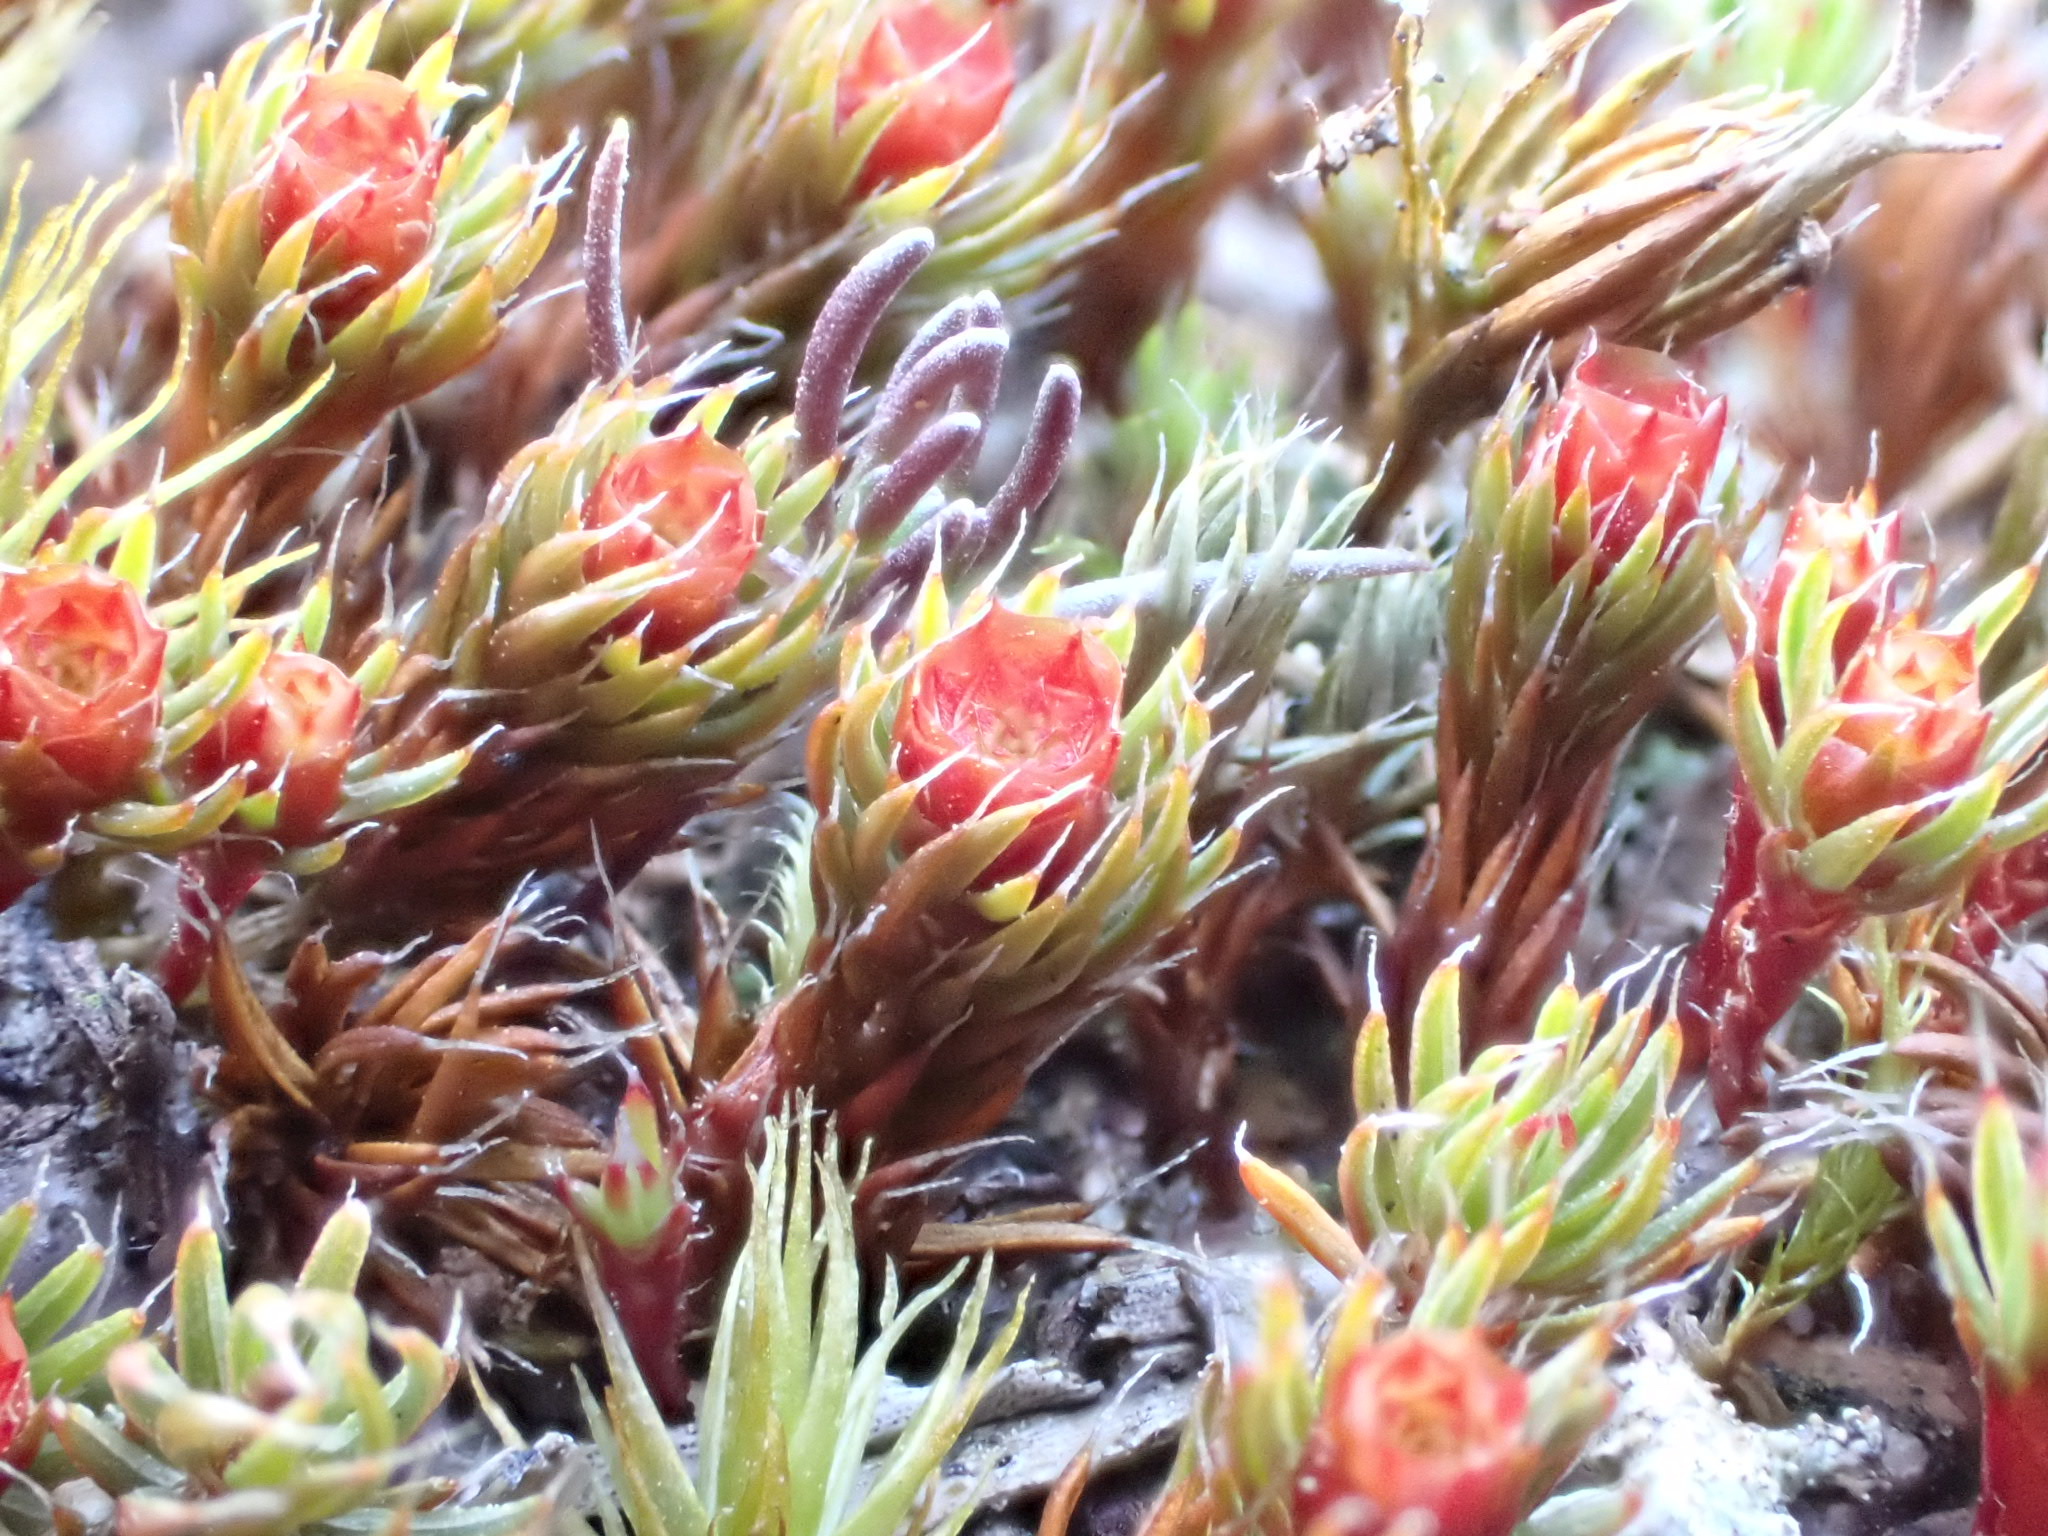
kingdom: Plantae
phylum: Bryophyta
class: Polytrichopsida
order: Polytrichales
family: Polytrichaceae
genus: Polytrichum
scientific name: Polytrichum piliferum
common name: Bristly haircap
